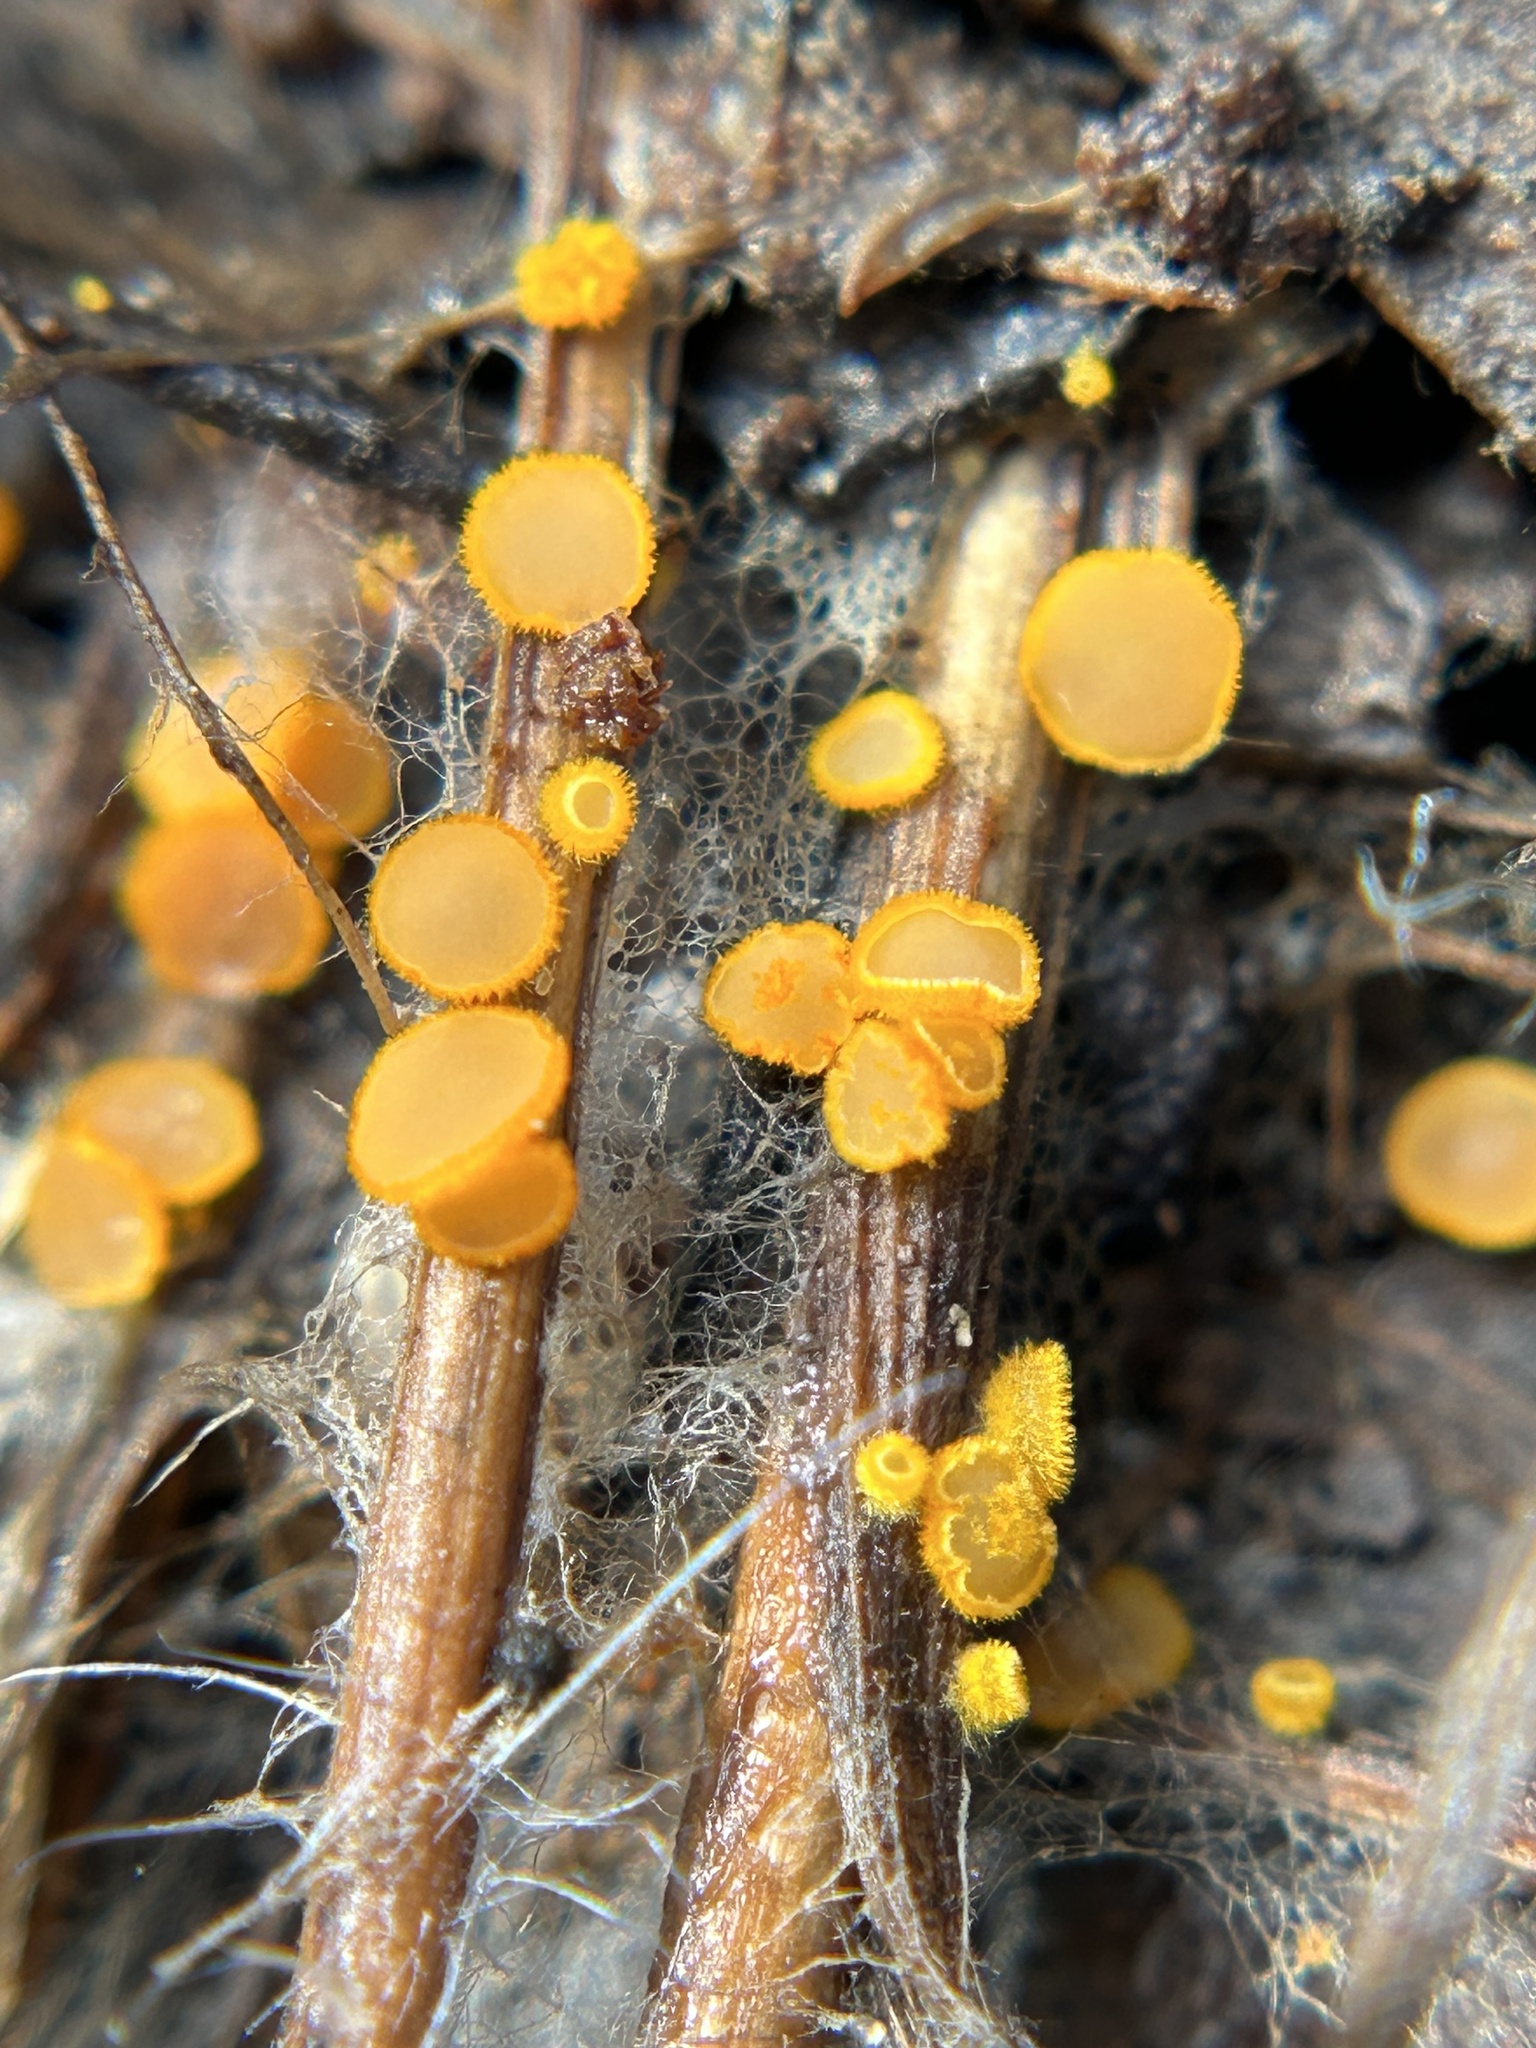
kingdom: Fungi
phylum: Ascomycota
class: Leotiomycetes
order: Helotiales
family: Arachnopezizaceae
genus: Arachnopeziza
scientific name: Arachnopeziza aurelia
